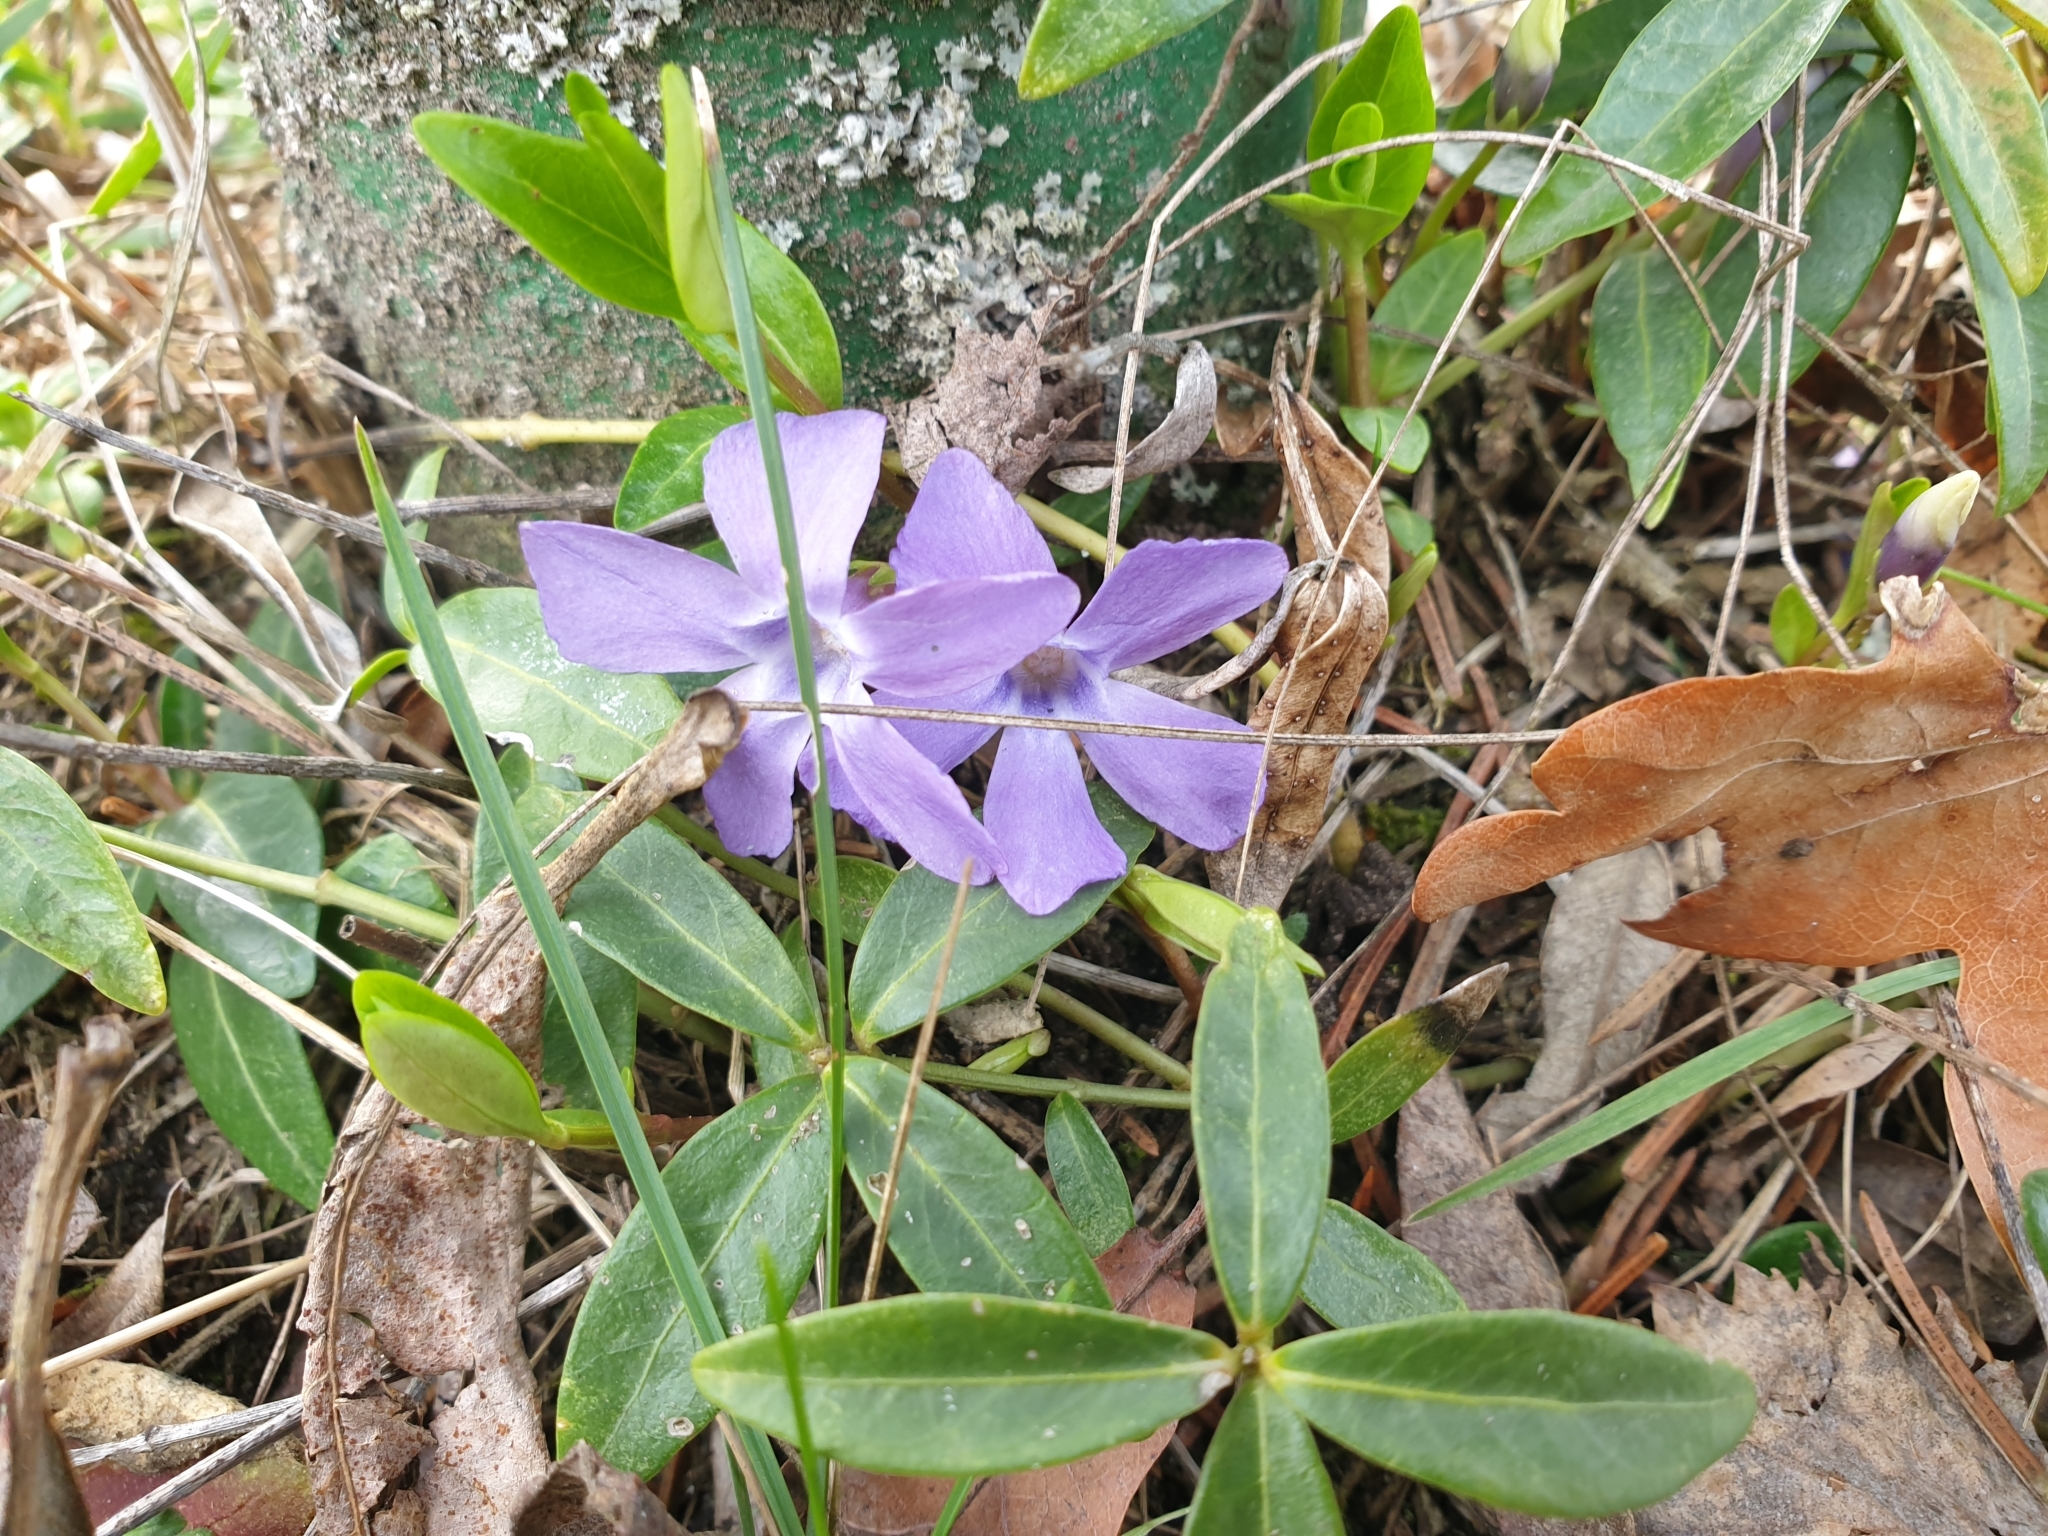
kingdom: Plantae
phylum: Tracheophyta
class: Magnoliopsida
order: Gentianales
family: Apocynaceae
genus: Vinca
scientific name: Vinca minor
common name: Lesser periwinkle
